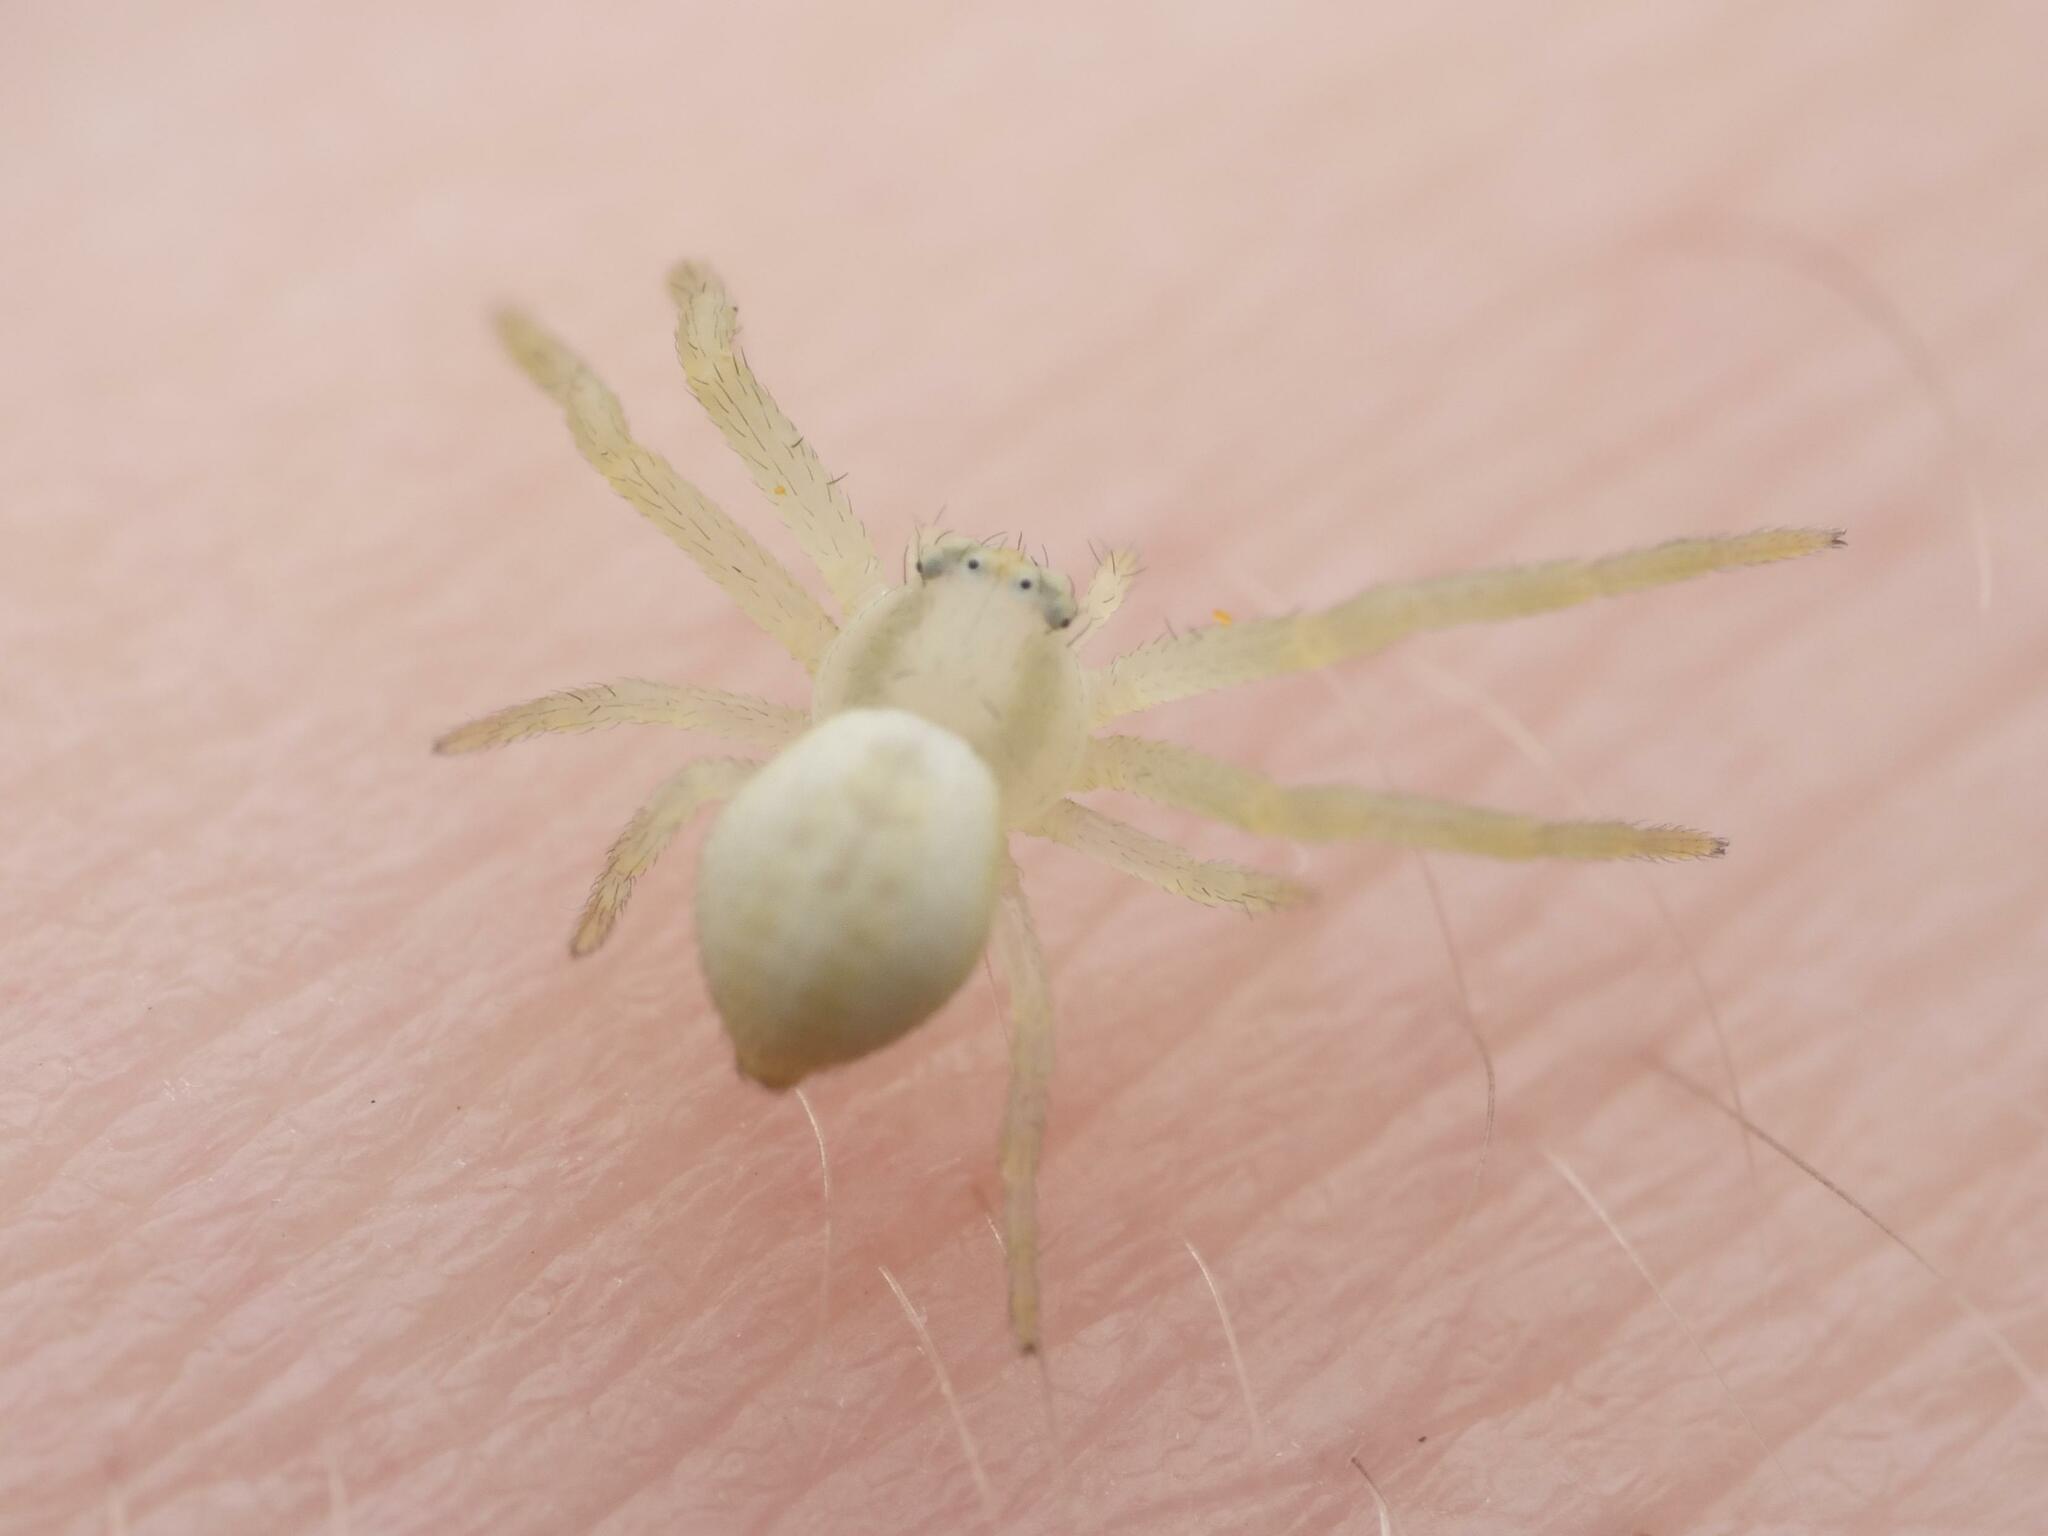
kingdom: Animalia
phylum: Arthropoda
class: Arachnida
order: Araneae
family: Thomisidae
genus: Misumena
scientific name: Misumena vatia
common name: Goldenrod crab spider
